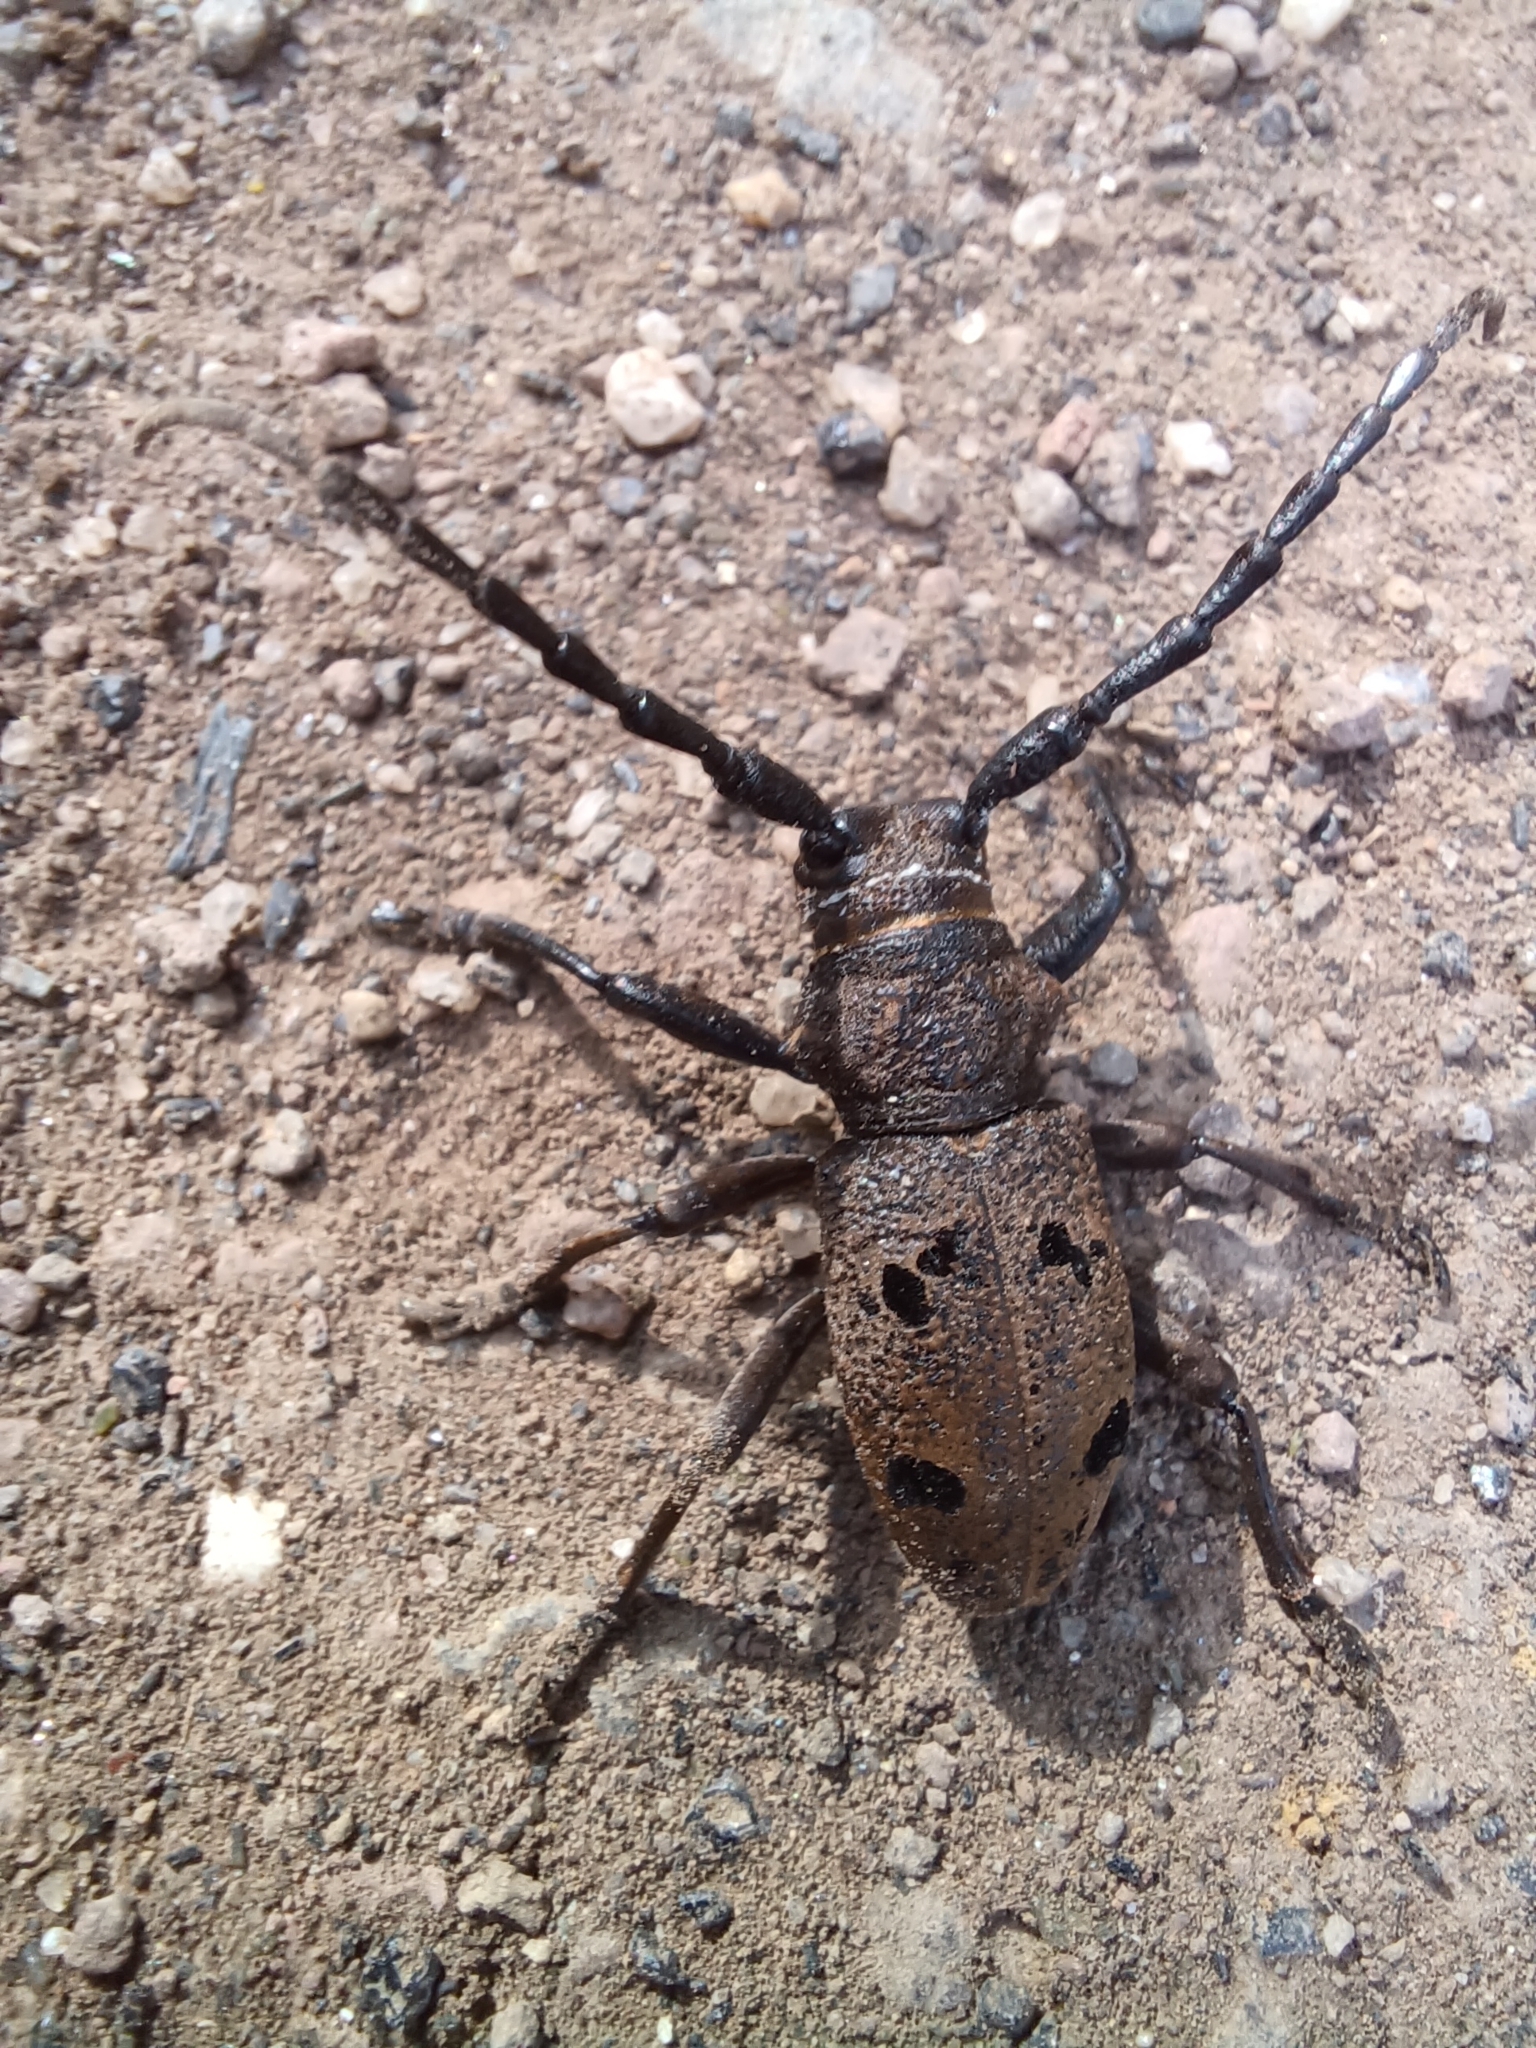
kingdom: Animalia
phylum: Arthropoda
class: Insecta
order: Coleoptera
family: Cerambycidae
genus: Herophila
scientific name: Herophila tristis
